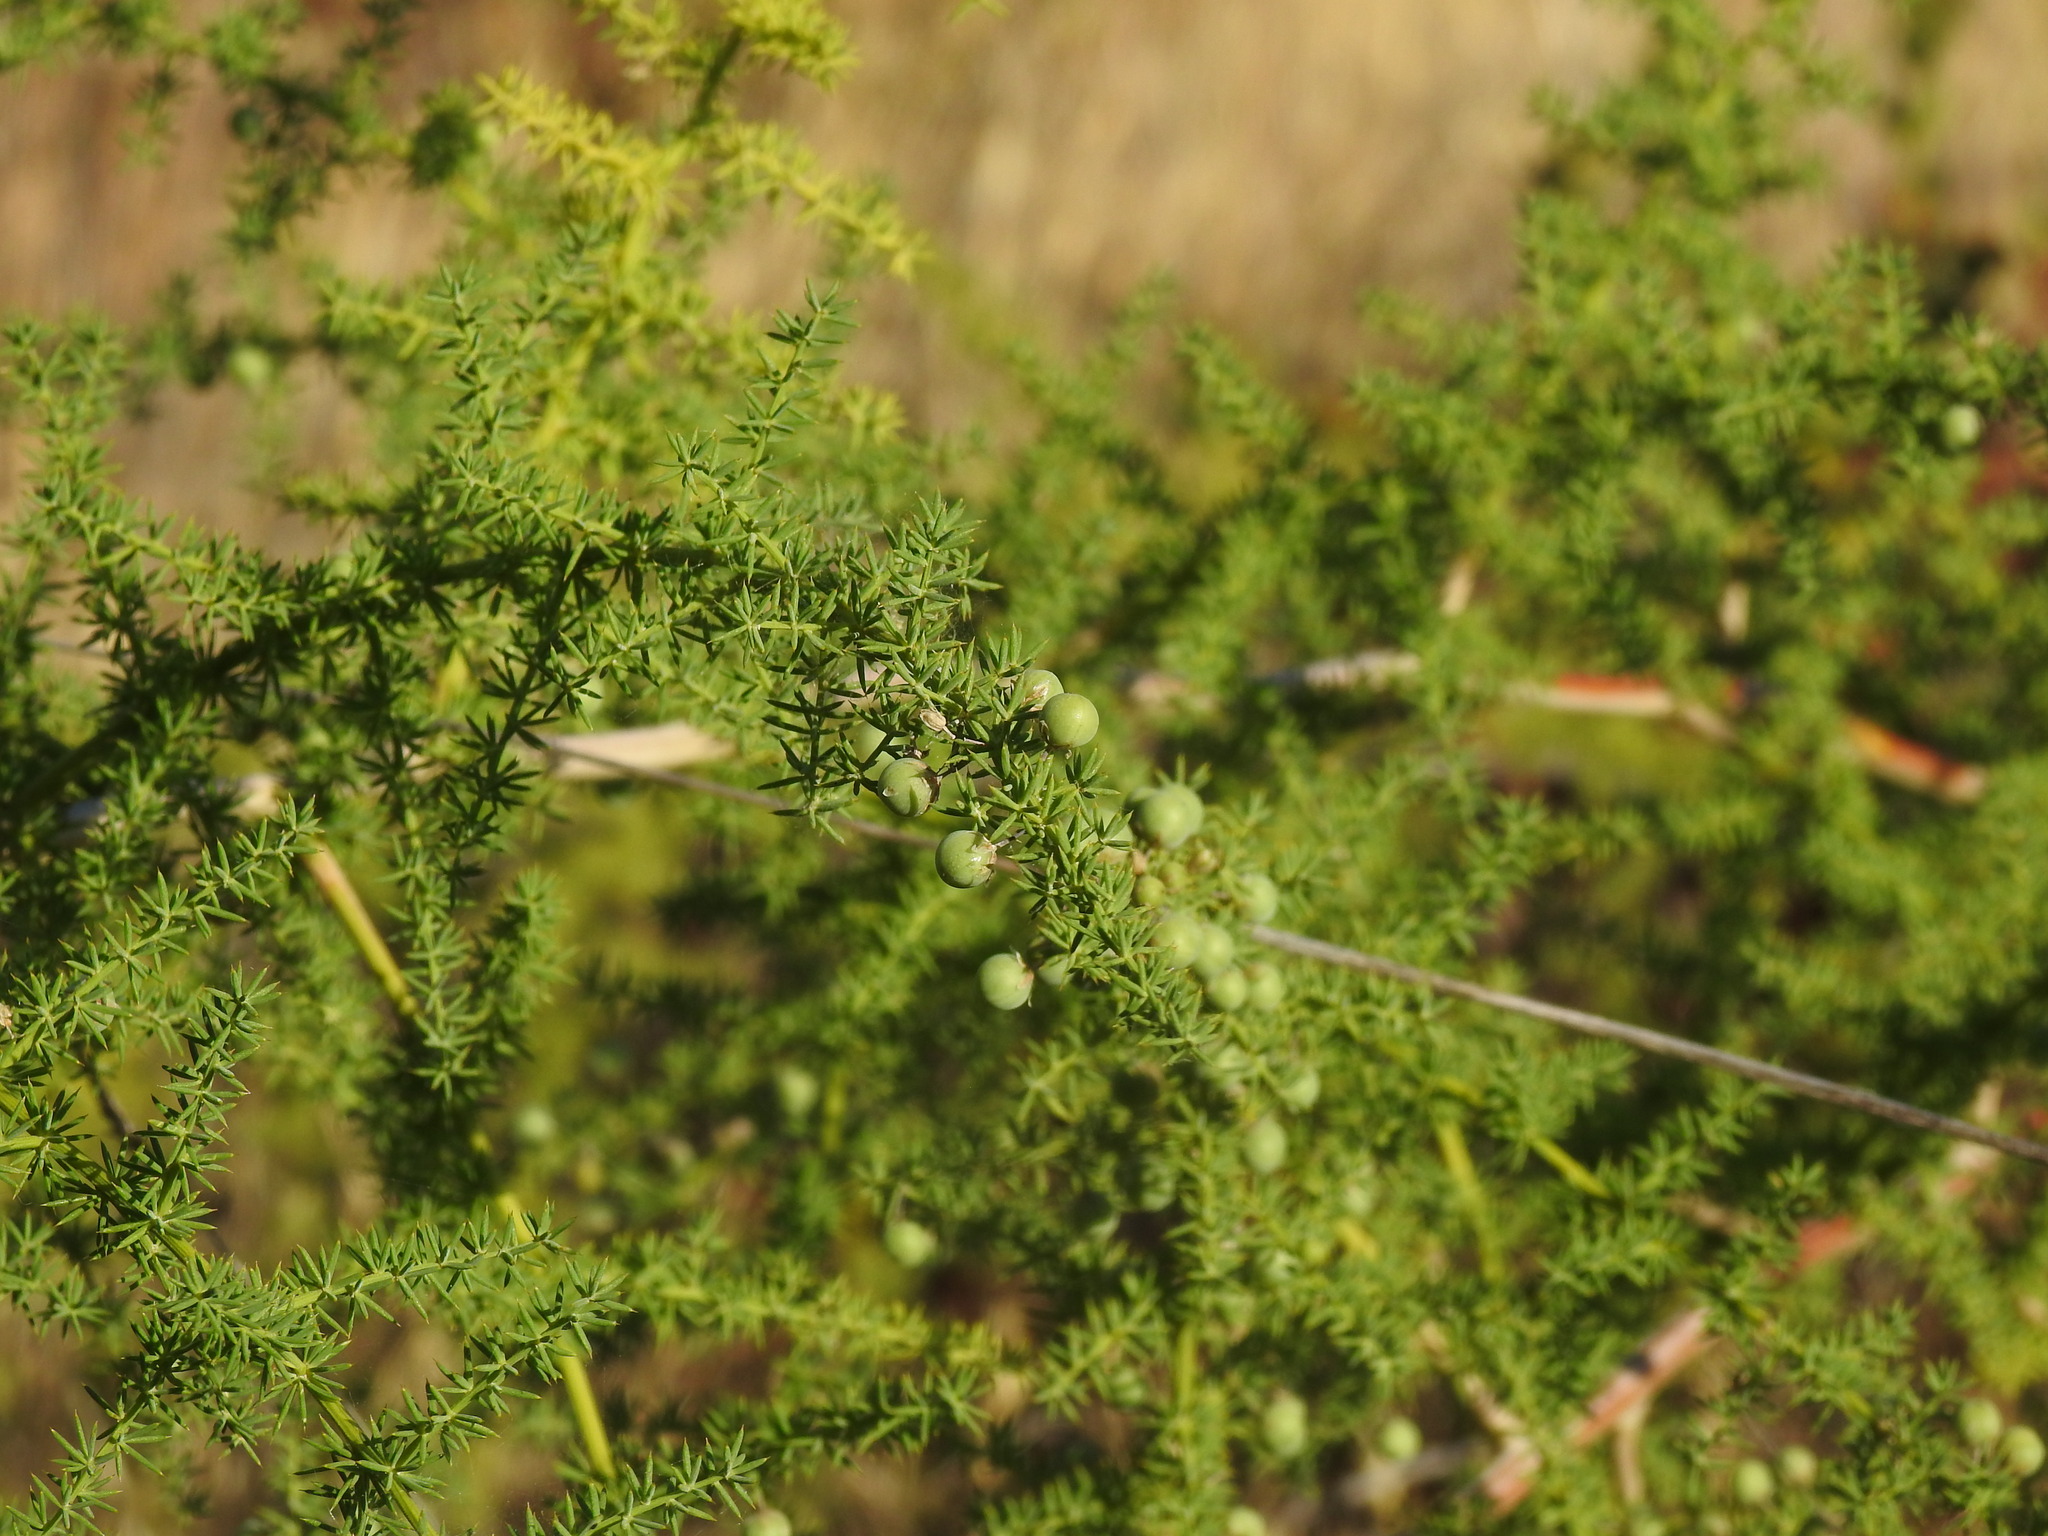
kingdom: Plantae
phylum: Tracheophyta
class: Liliopsida
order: Asparagales
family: Asparagaceae
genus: Asparagus
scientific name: Asparagus acutifolius
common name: Wild asparagus
